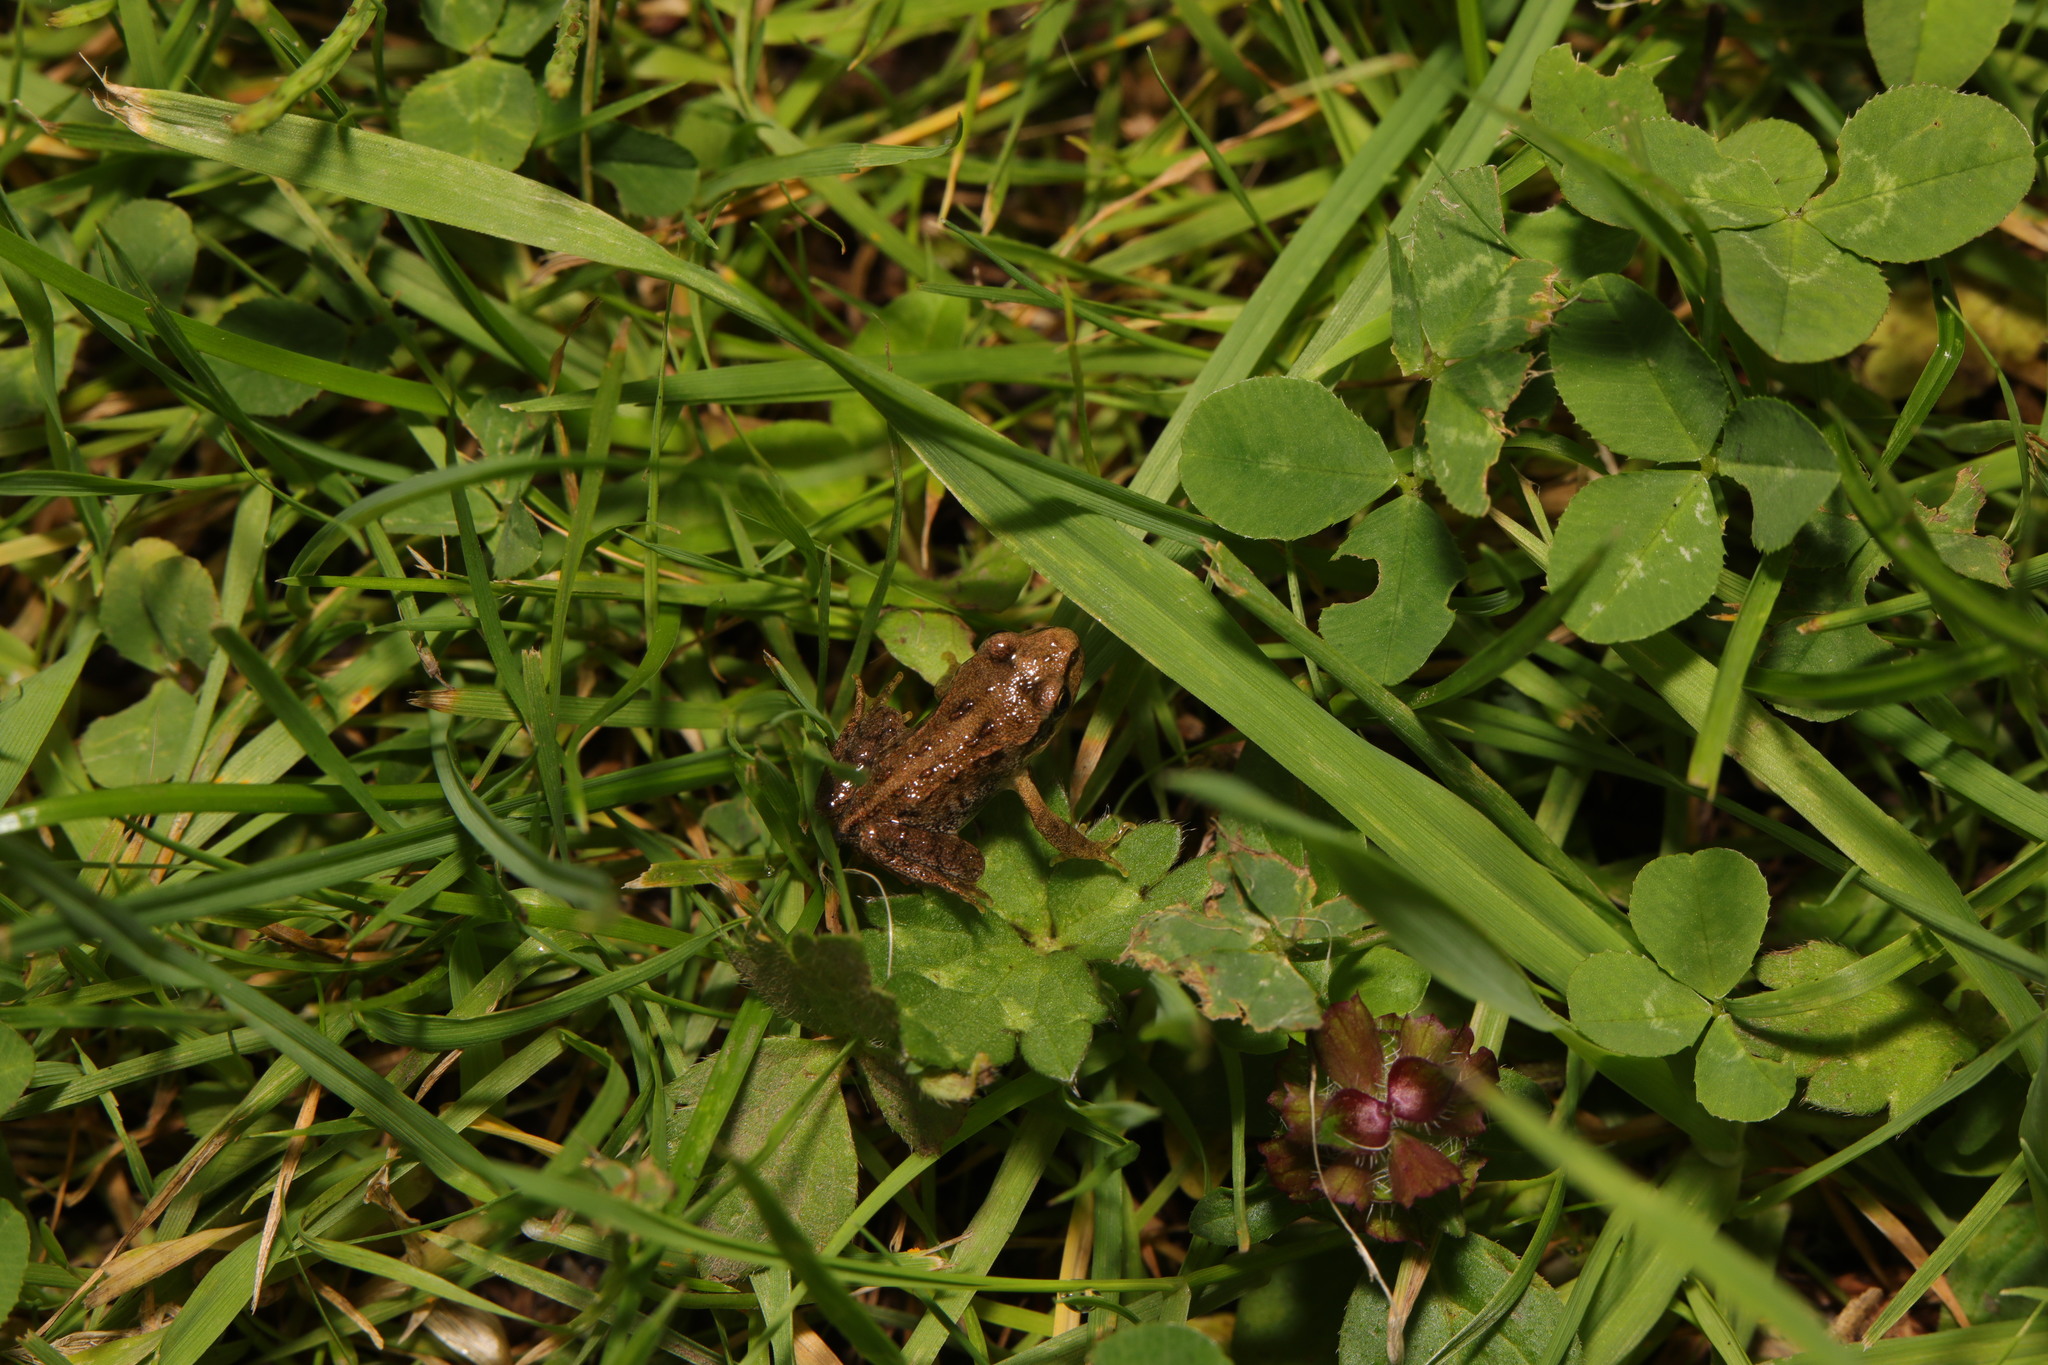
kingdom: Animalia
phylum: Chordata
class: Amphibia
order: Anura
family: Ranidae
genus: Rana
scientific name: Rana temporaria
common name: Common frog
